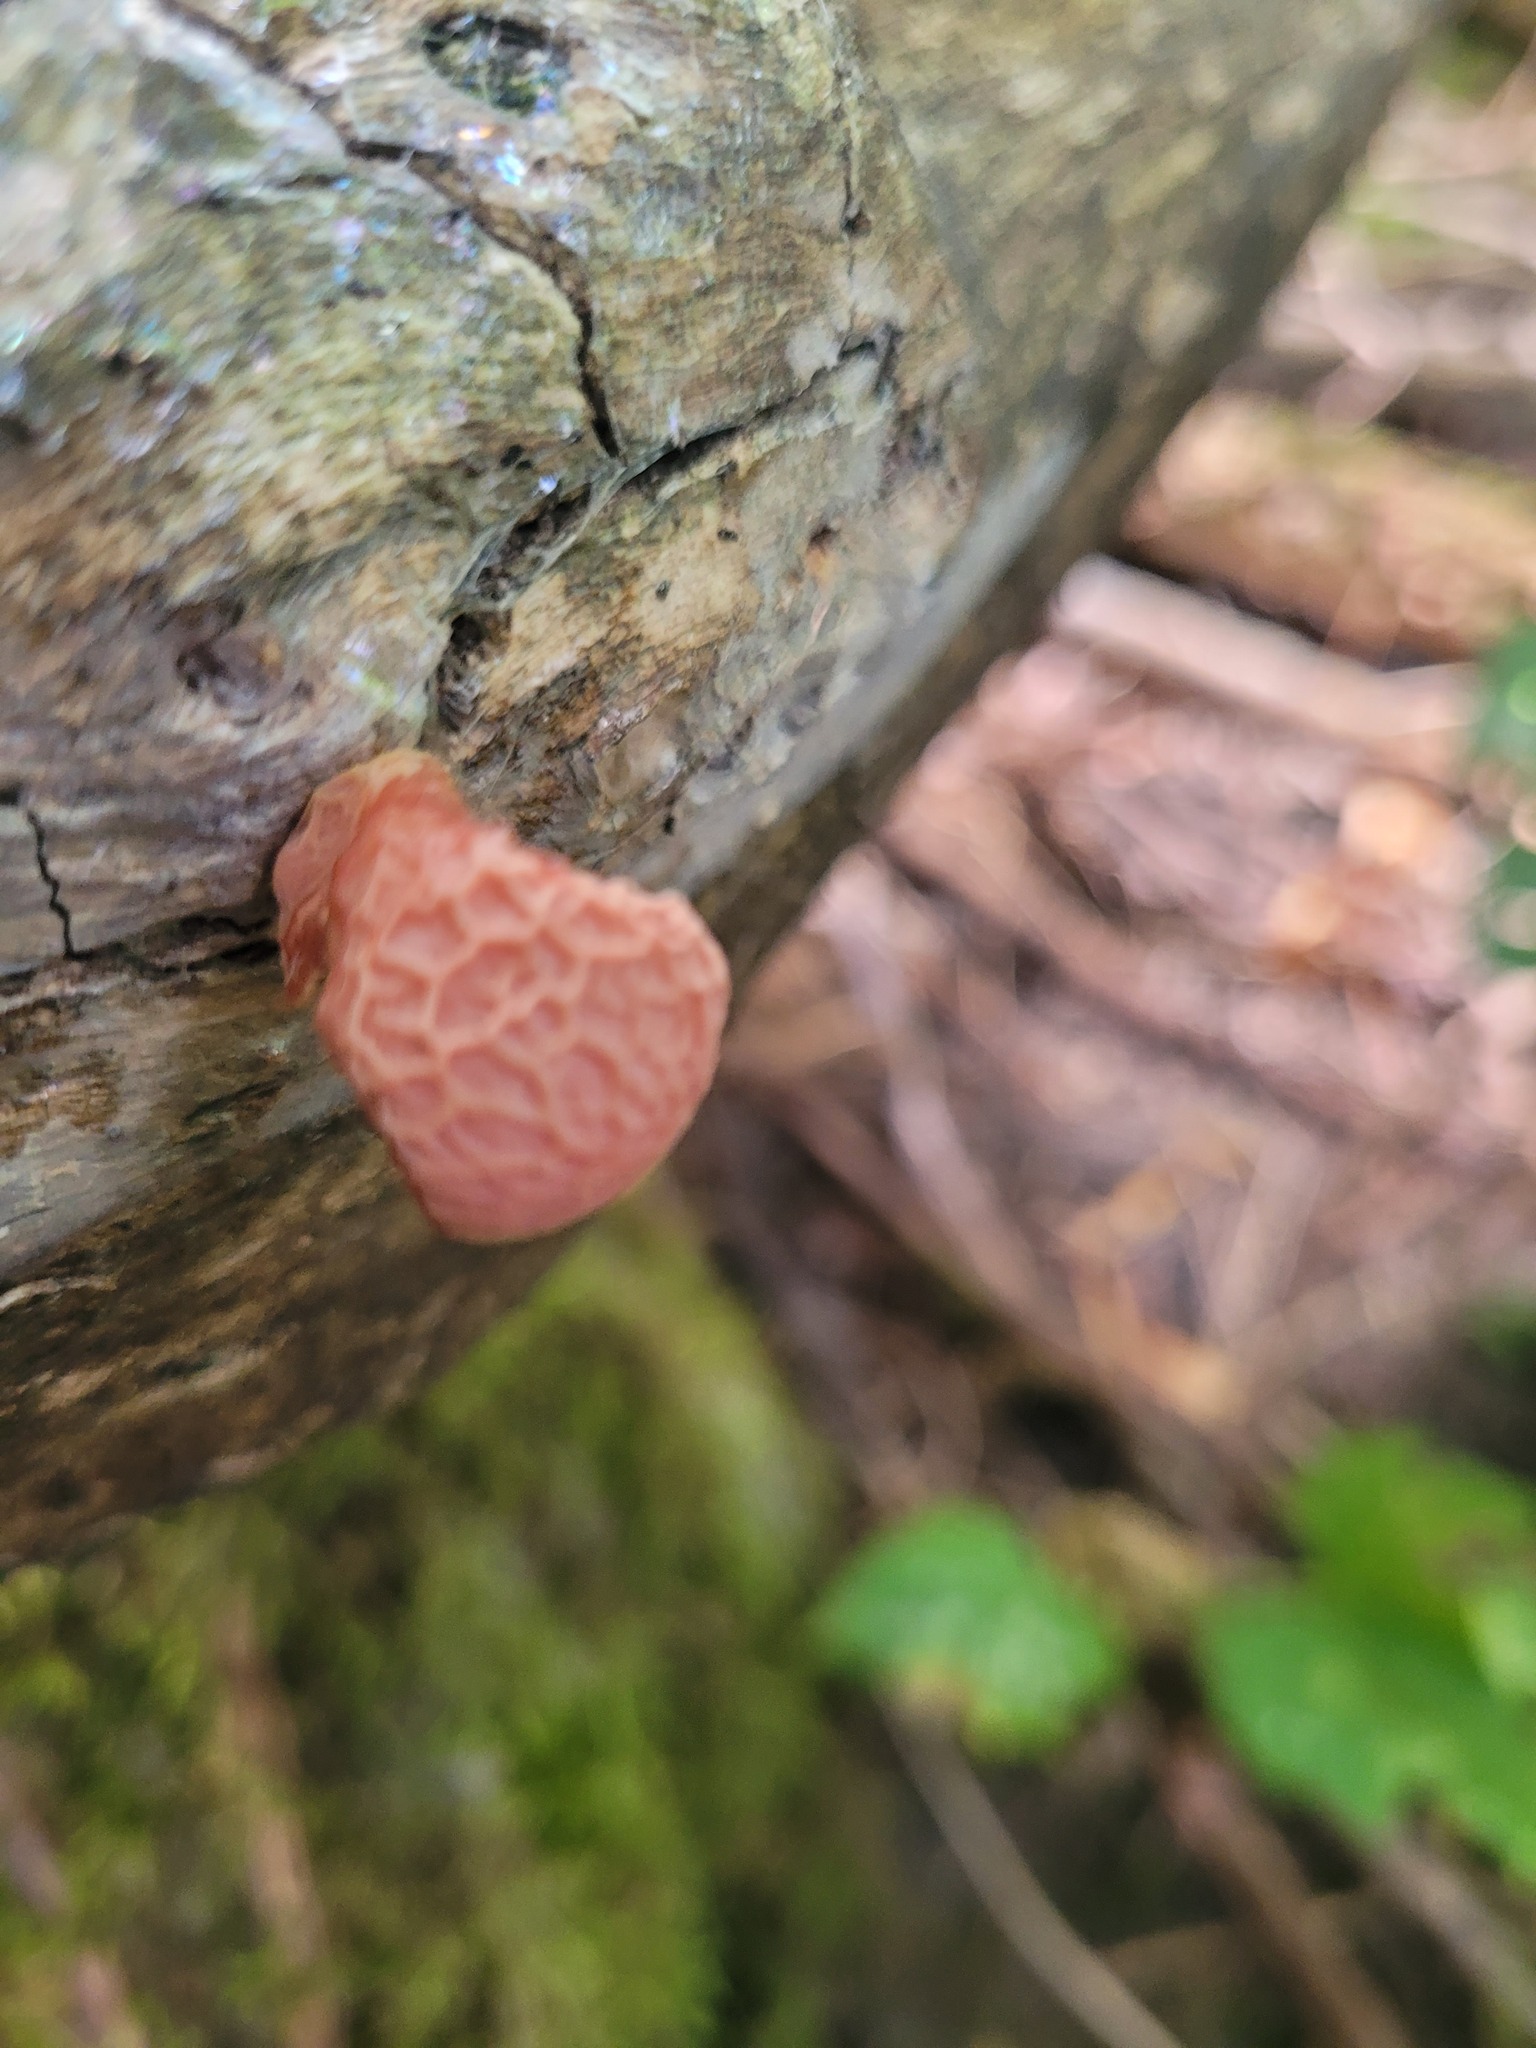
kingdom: Fungi
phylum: Basidiomycota
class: Agaricomycetes
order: Agaricales
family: Physalacriaceae
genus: Rhodotus
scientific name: Rhodotus palmatus
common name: Wrinkled peach
